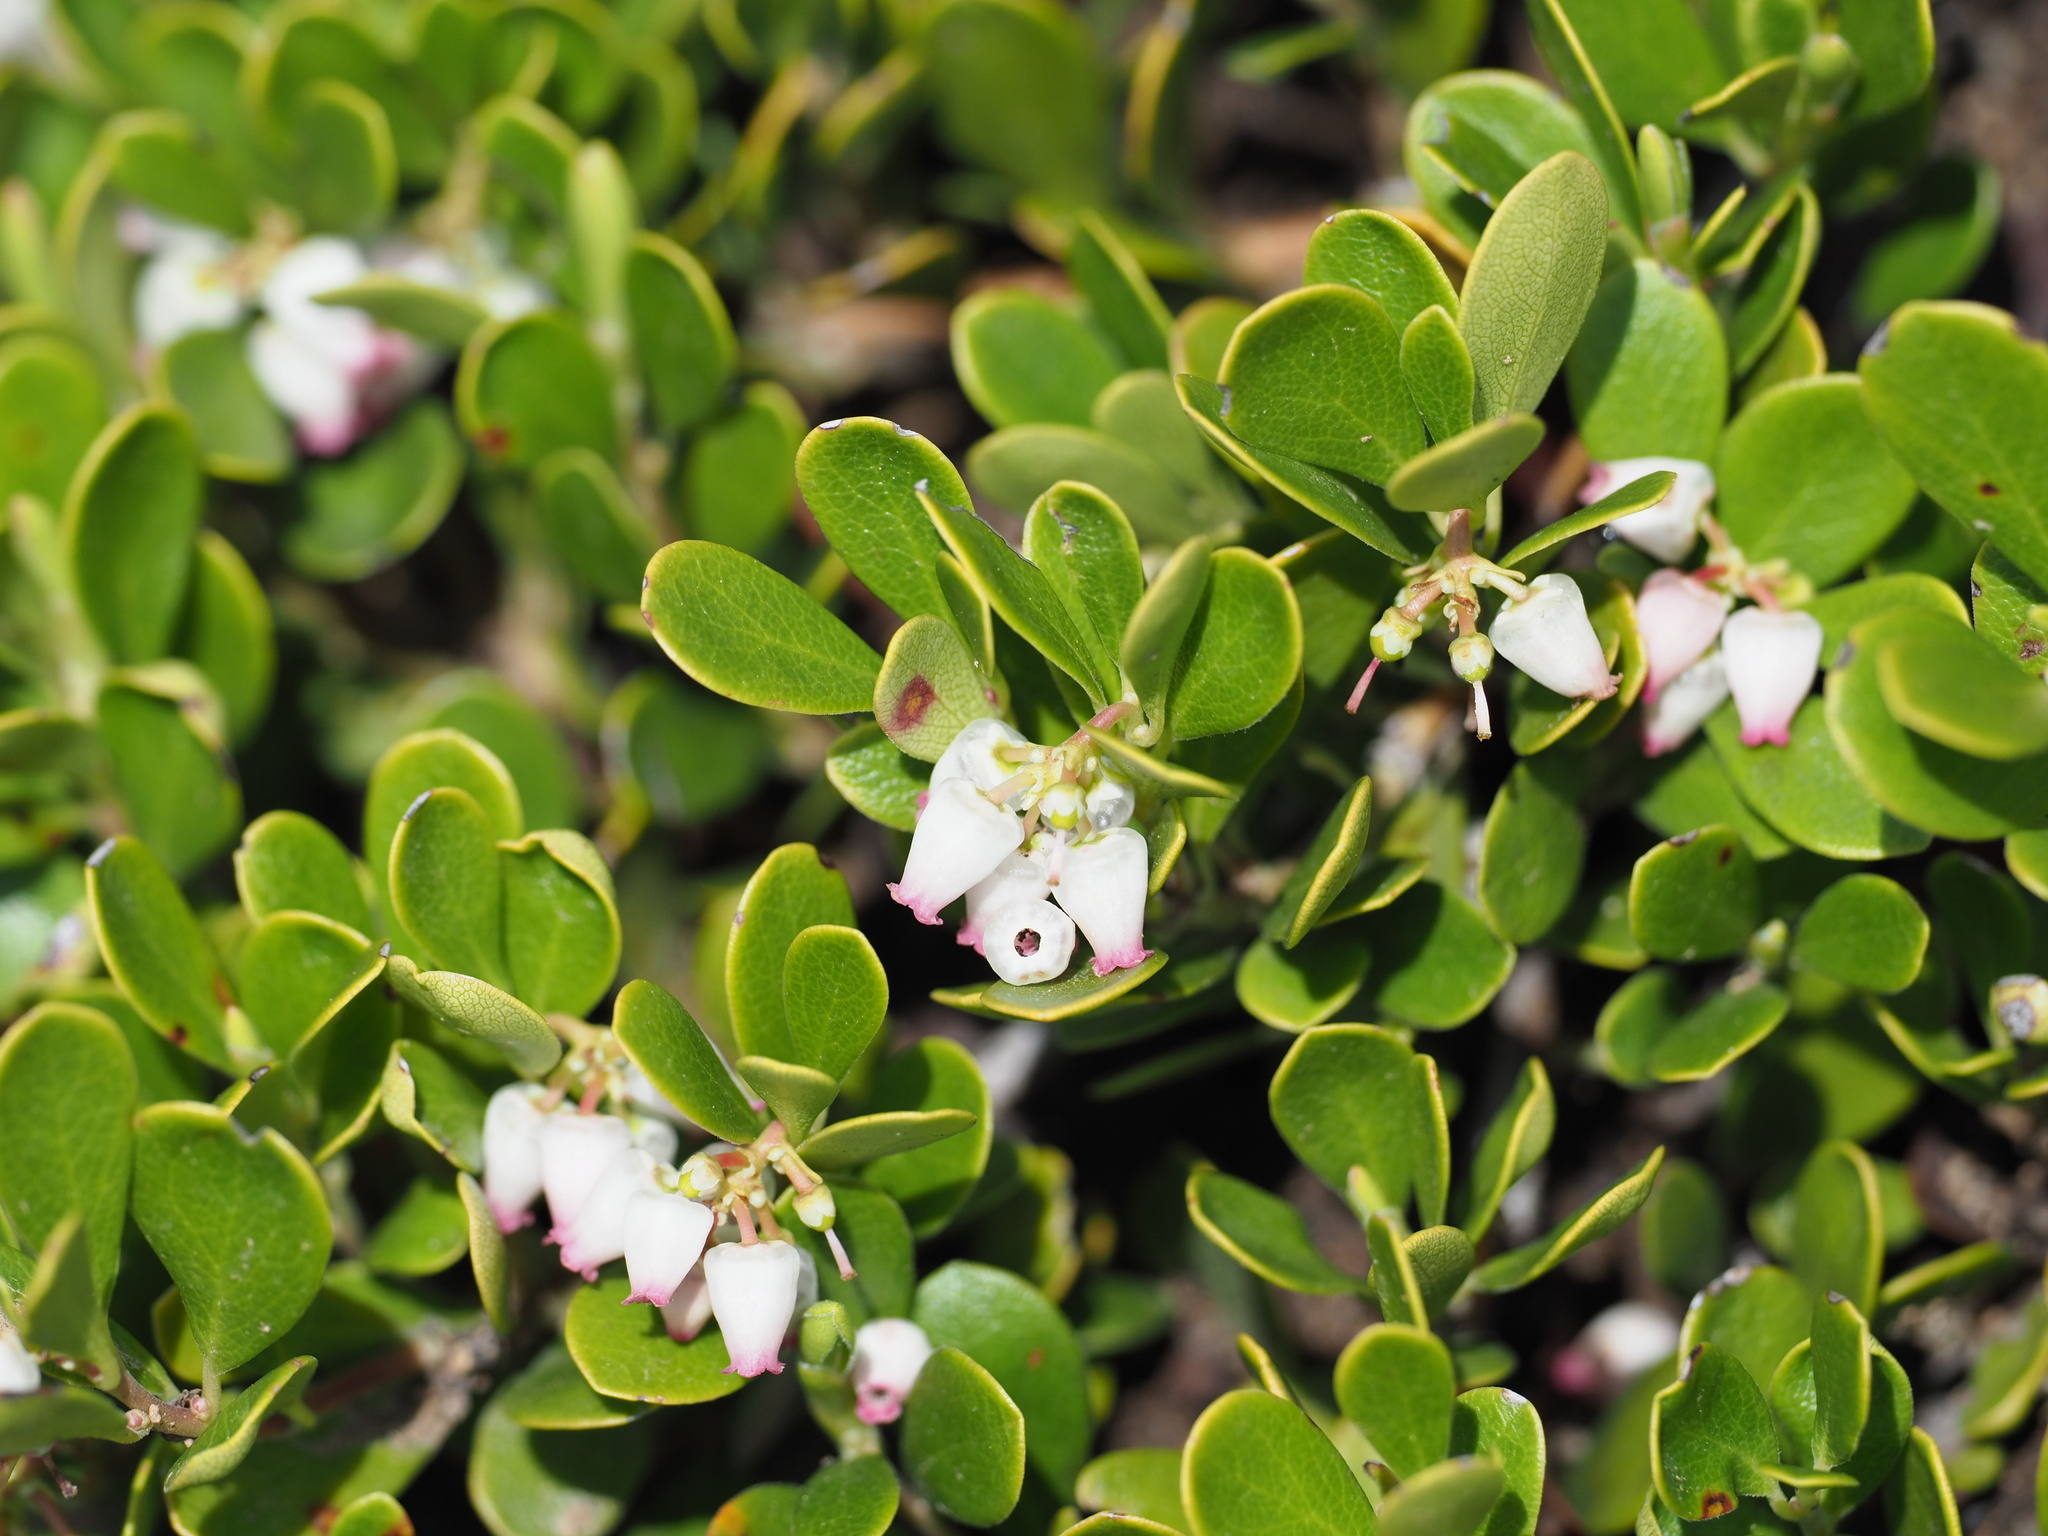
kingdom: Plantae
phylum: Tracheophyta
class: Magnoliopsida
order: Ericales
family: Ericaceae
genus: Arctostaphylos
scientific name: Arctostaphylos uva-ursi
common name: Bearberry
